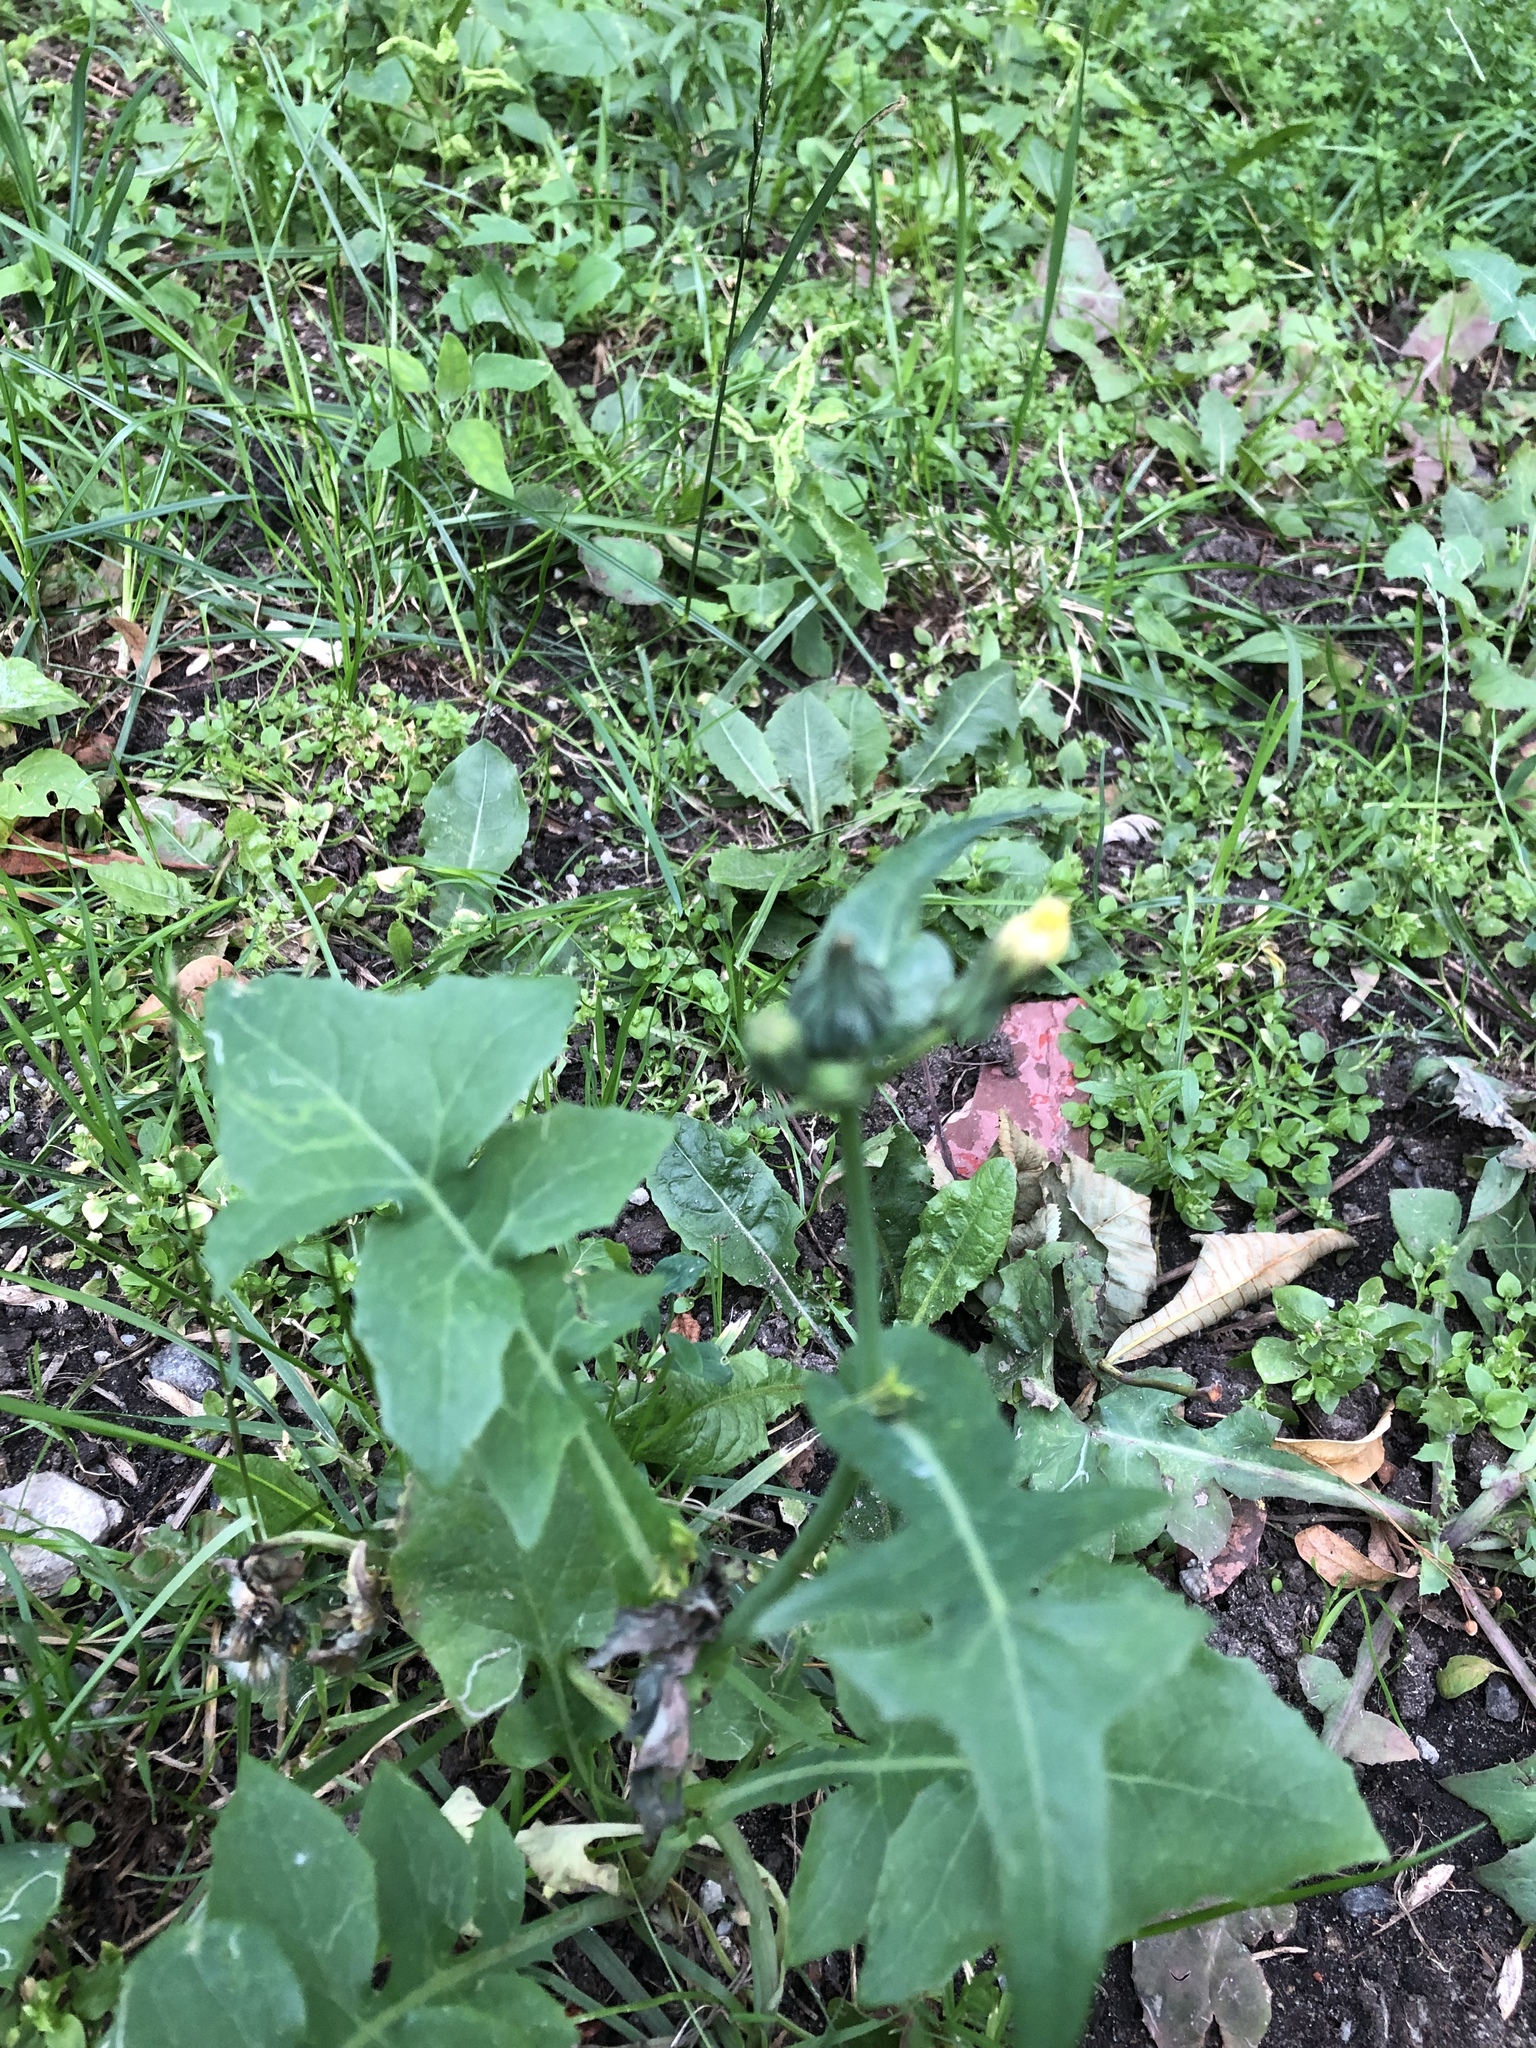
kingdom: Plantae
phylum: Tracheophyta
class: Magnoliopsida
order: Asterales
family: Asteraceae
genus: Sonchus
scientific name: Sonchus oleraceus
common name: Common sowthistle
